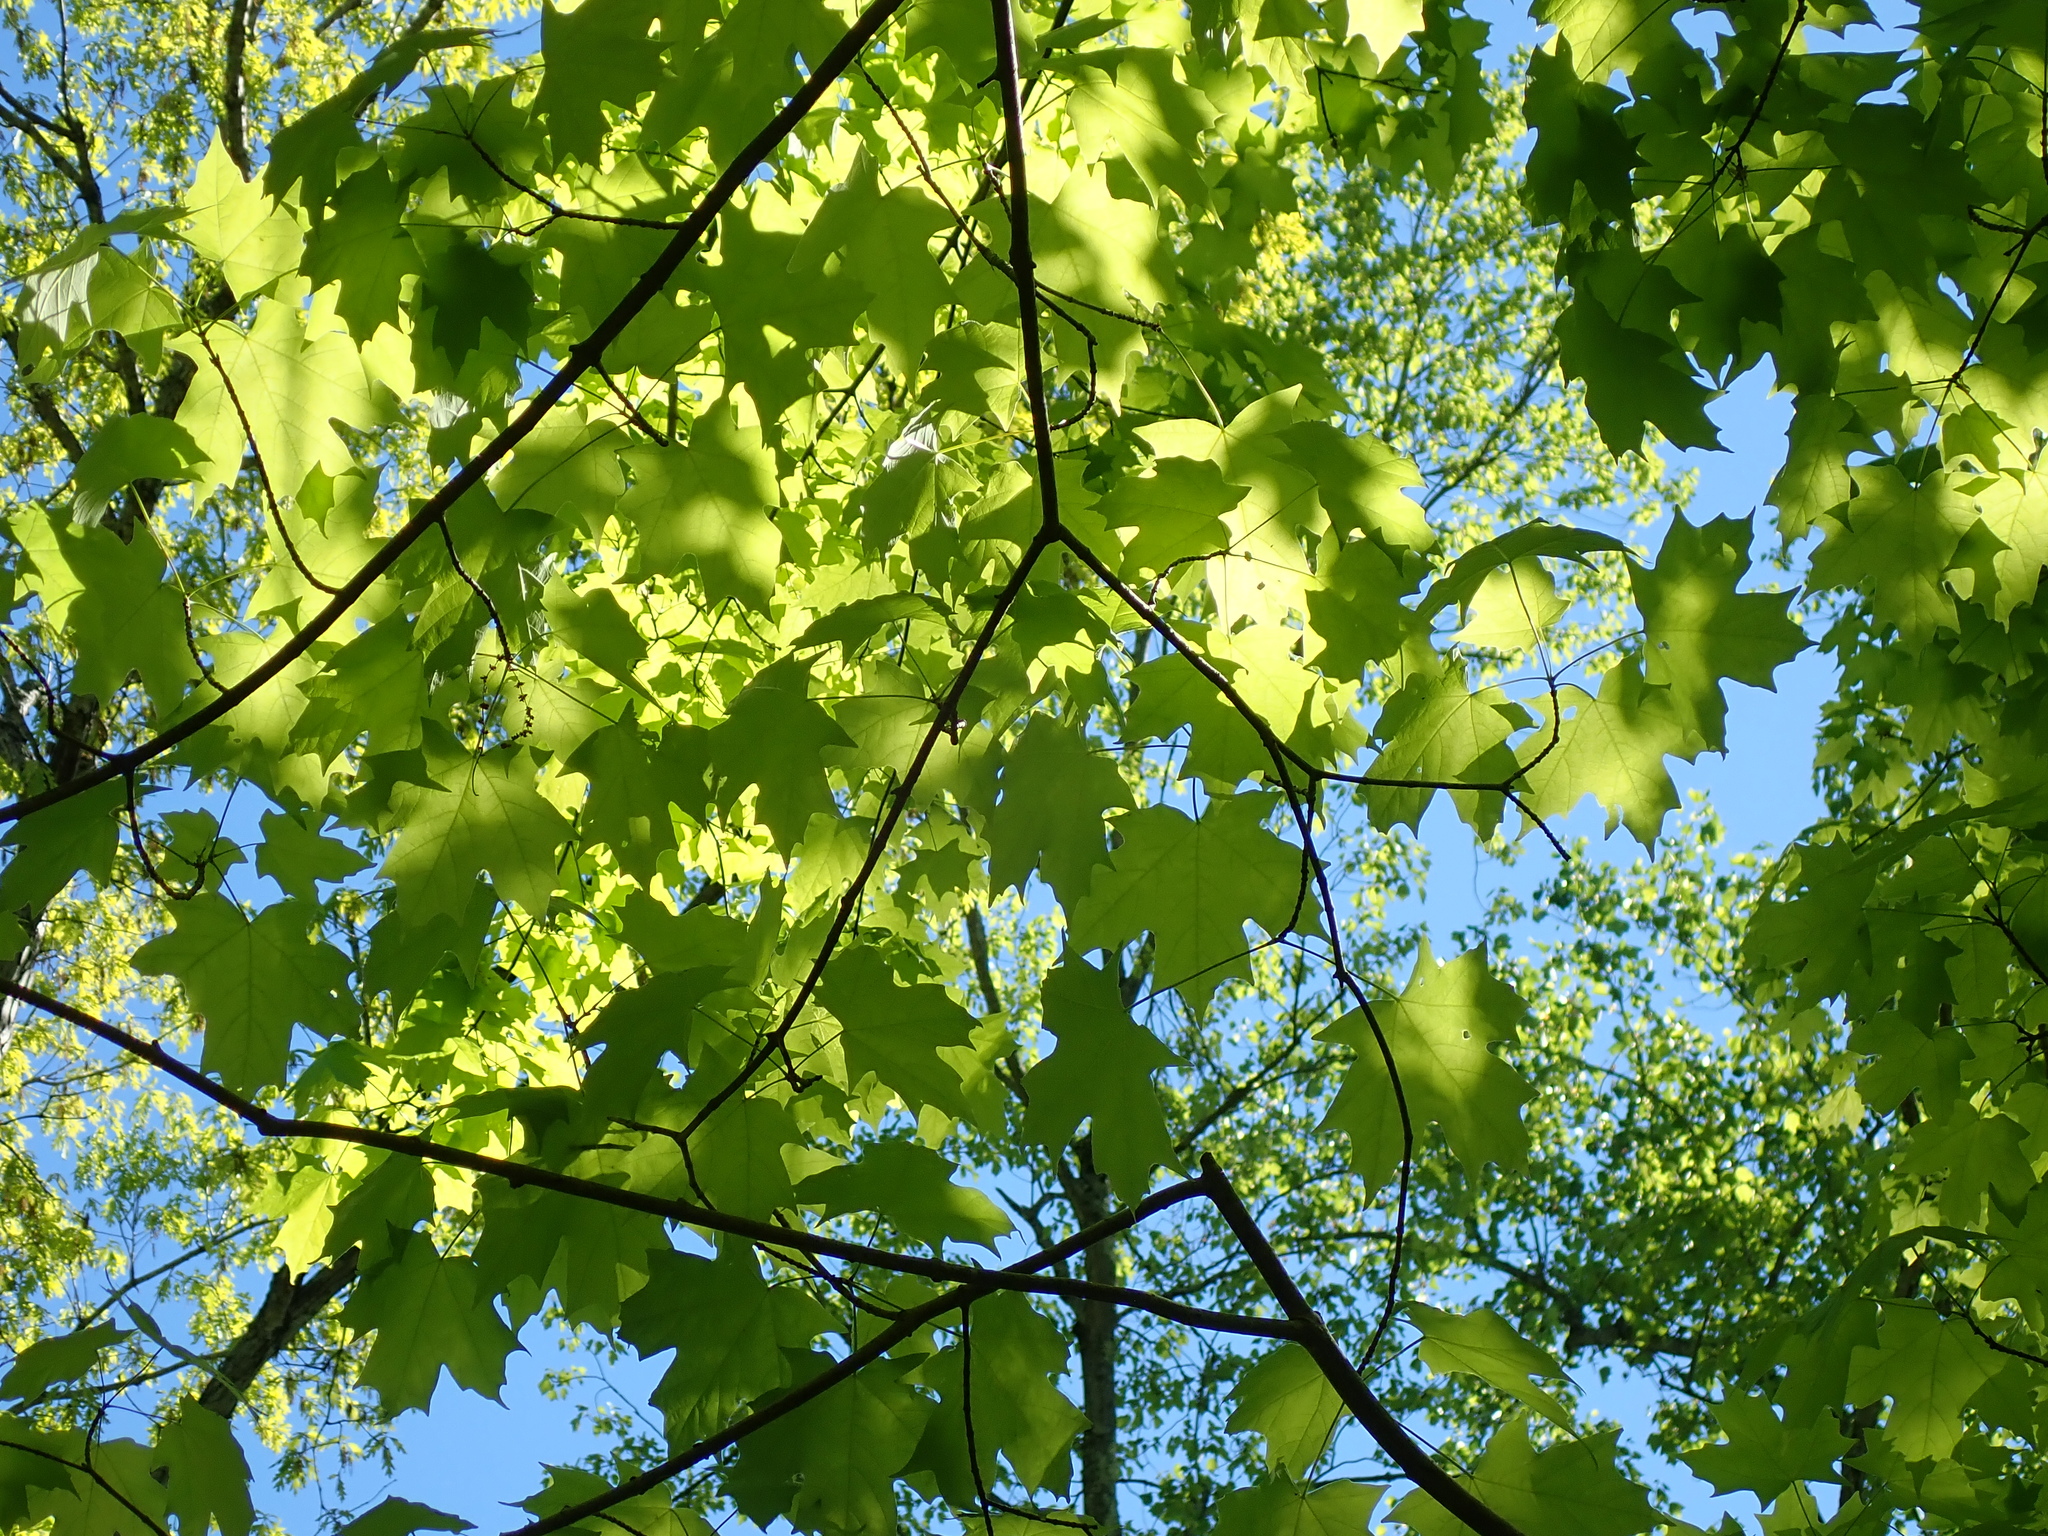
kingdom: Plantae
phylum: Tracheophyta
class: Magnoliopsida
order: Sapindales
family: Sapindaceae
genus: Acer
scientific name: Acer saccharum
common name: Sugar maple
